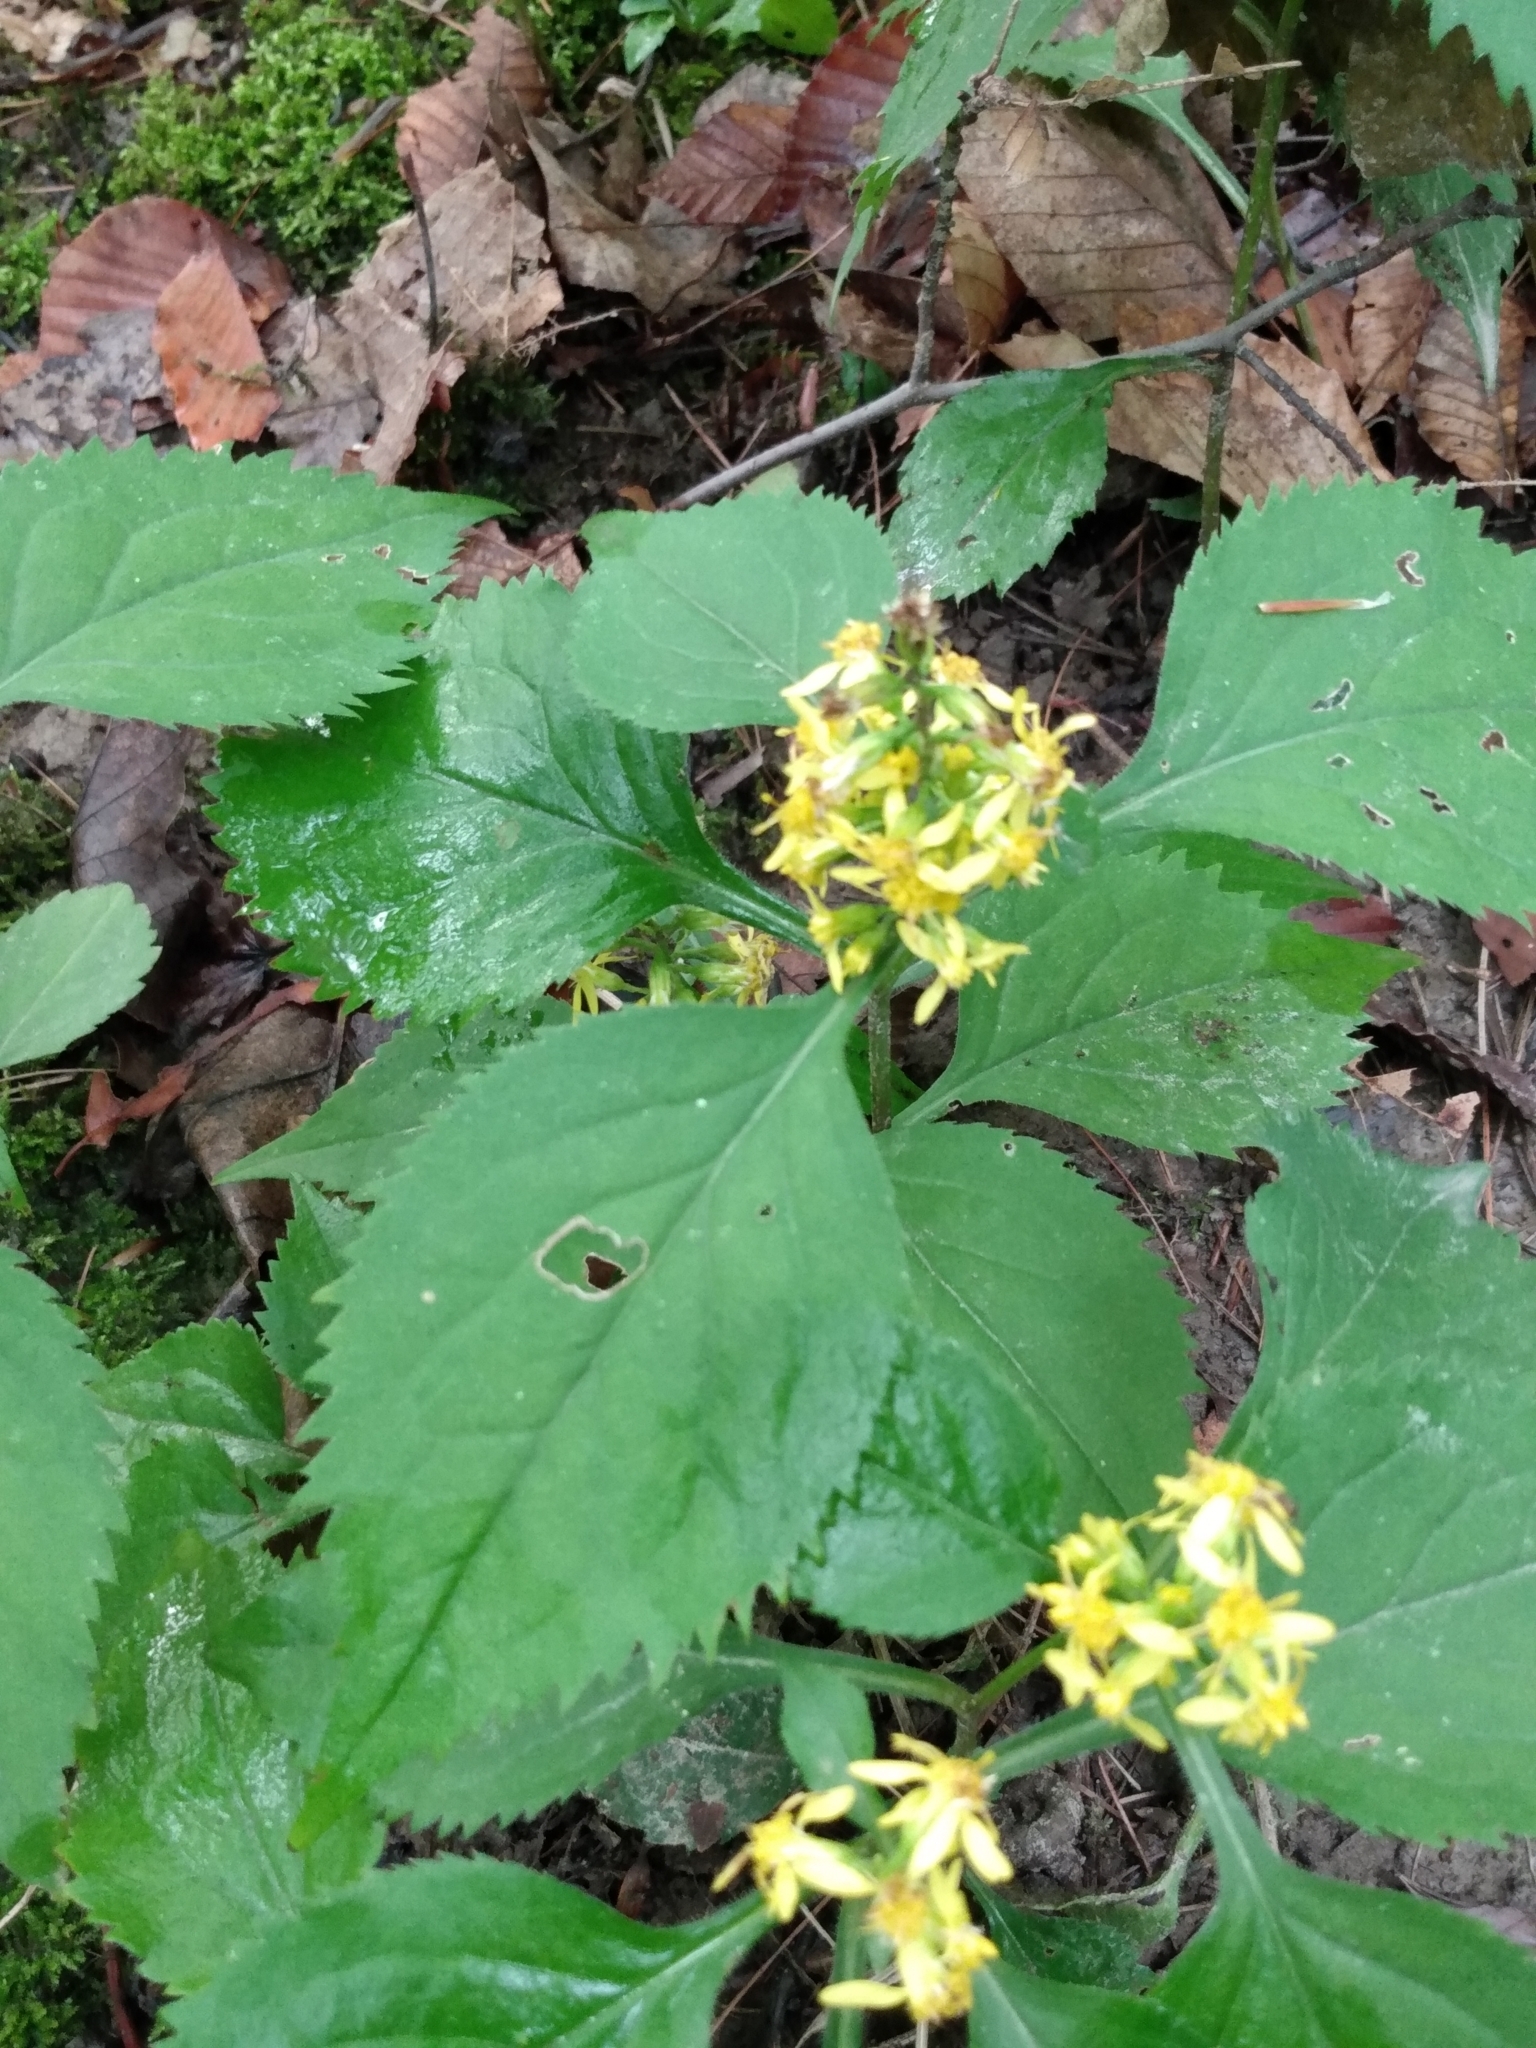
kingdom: Plantae
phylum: Tracheophyta
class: Magnoliopsida
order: Asterales
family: Asteraceae
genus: Solidago
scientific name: Solidago flexicaulis
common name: Zig-zag goldenrod
